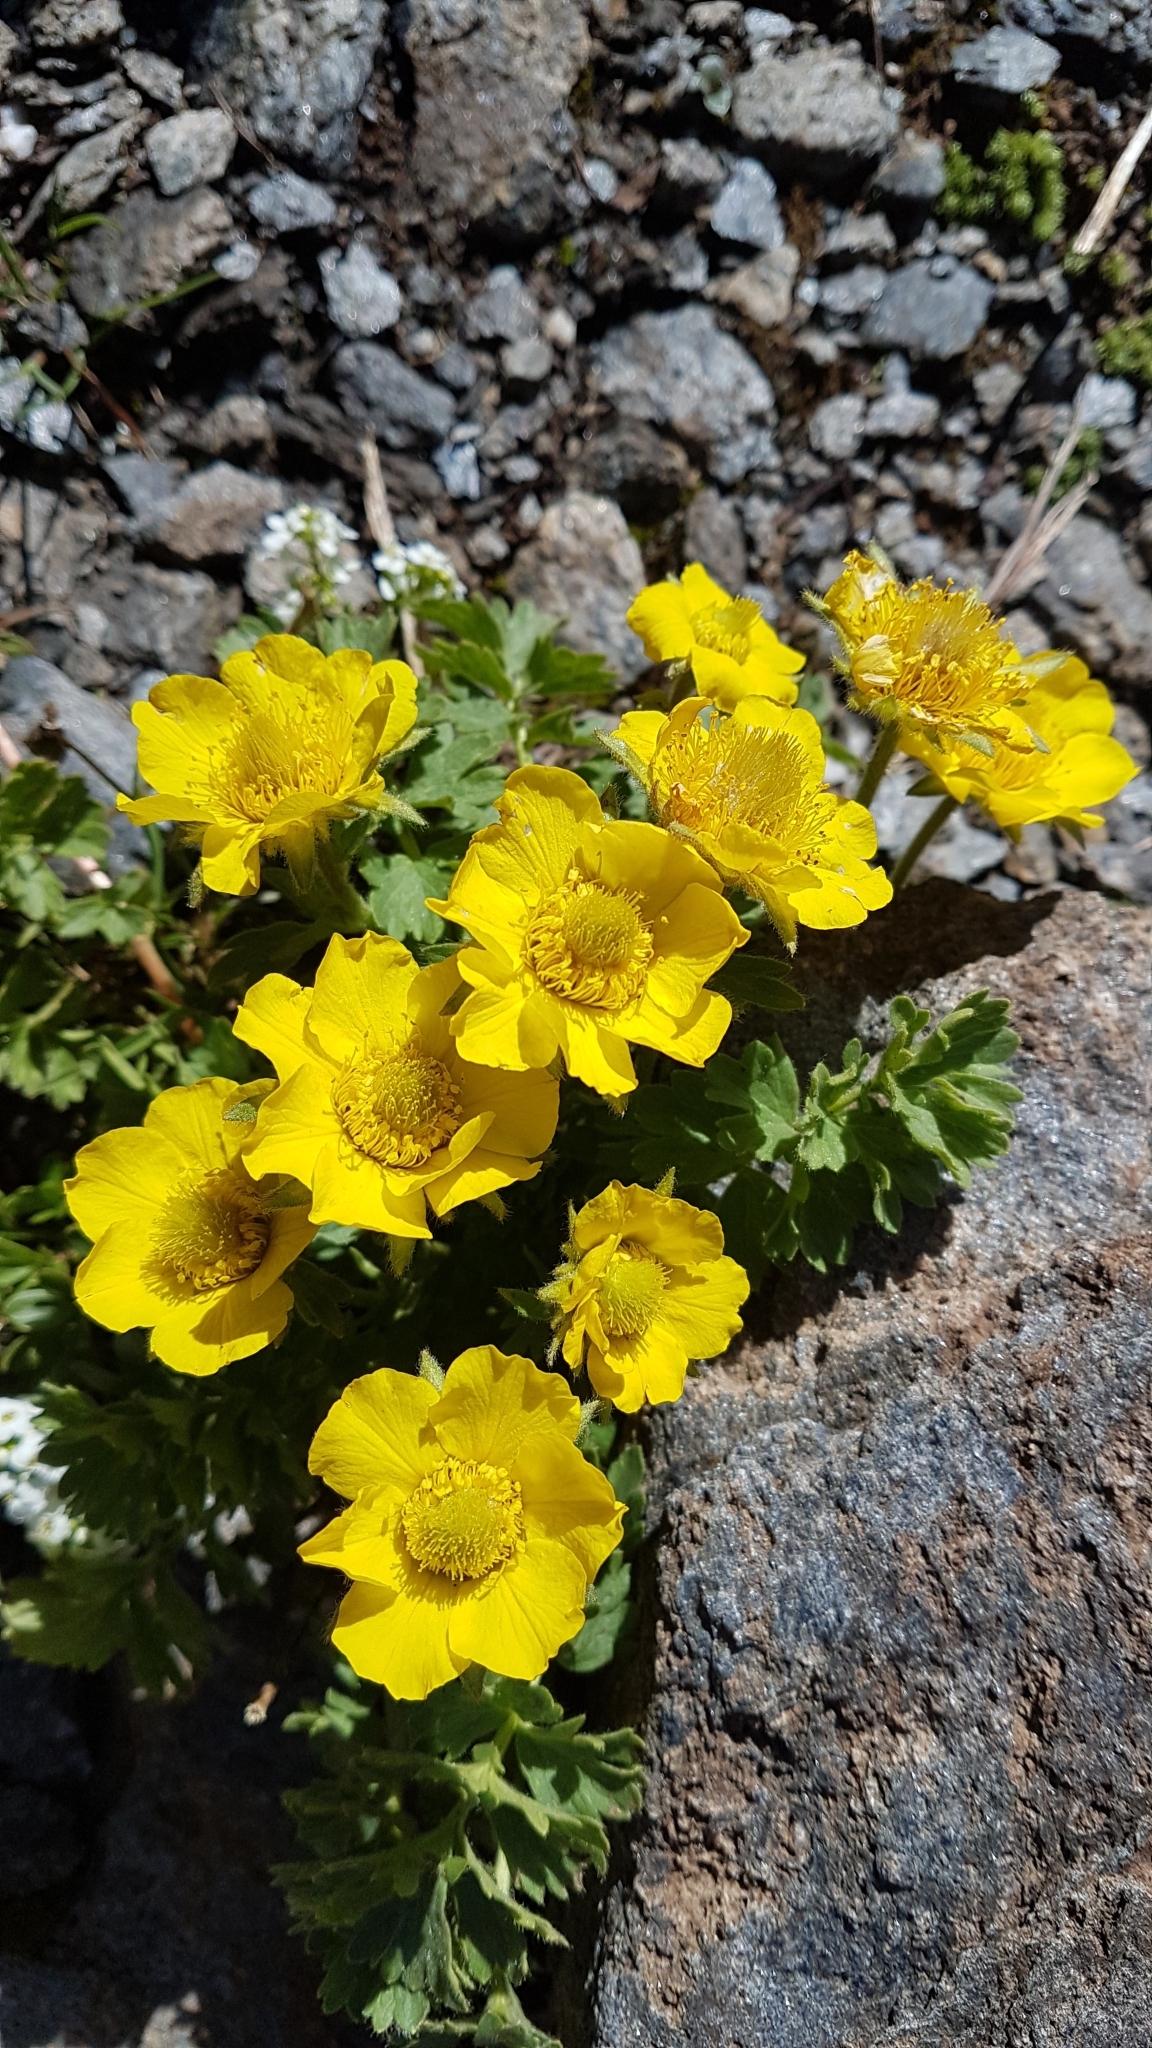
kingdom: Plantae
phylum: Tracheophyta
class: Magnoliopsida
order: Rosales
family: Rosaceae
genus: Geum
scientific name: Geum reptans
